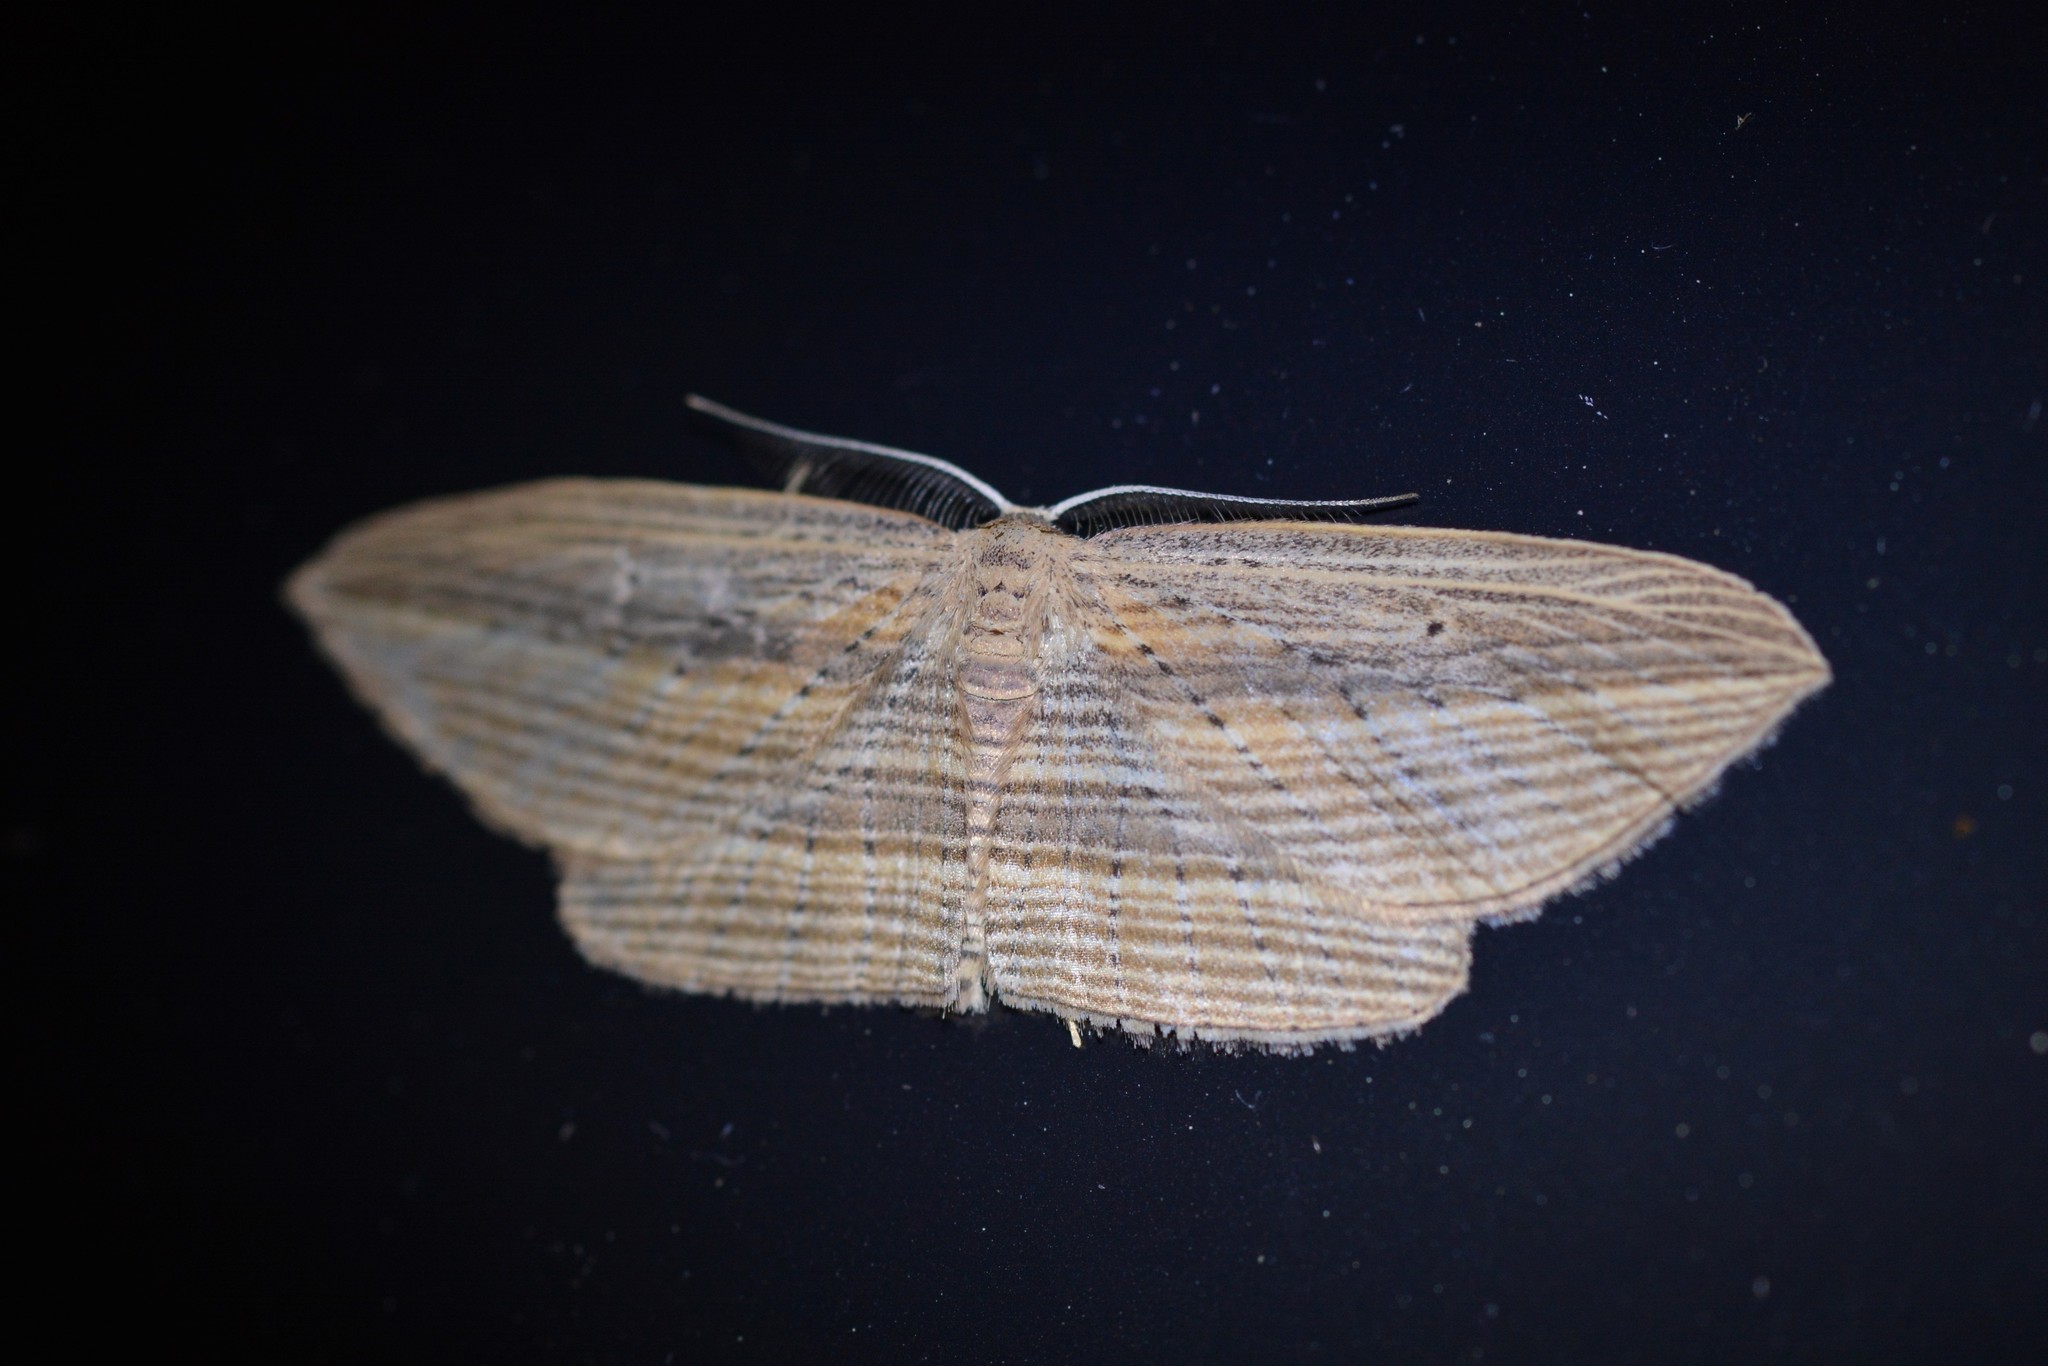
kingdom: Animalia
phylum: Arthropoda
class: Insecta
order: Lepidoptera
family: Geometridae
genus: Epiphryne
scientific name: Epiphryne verriculata
